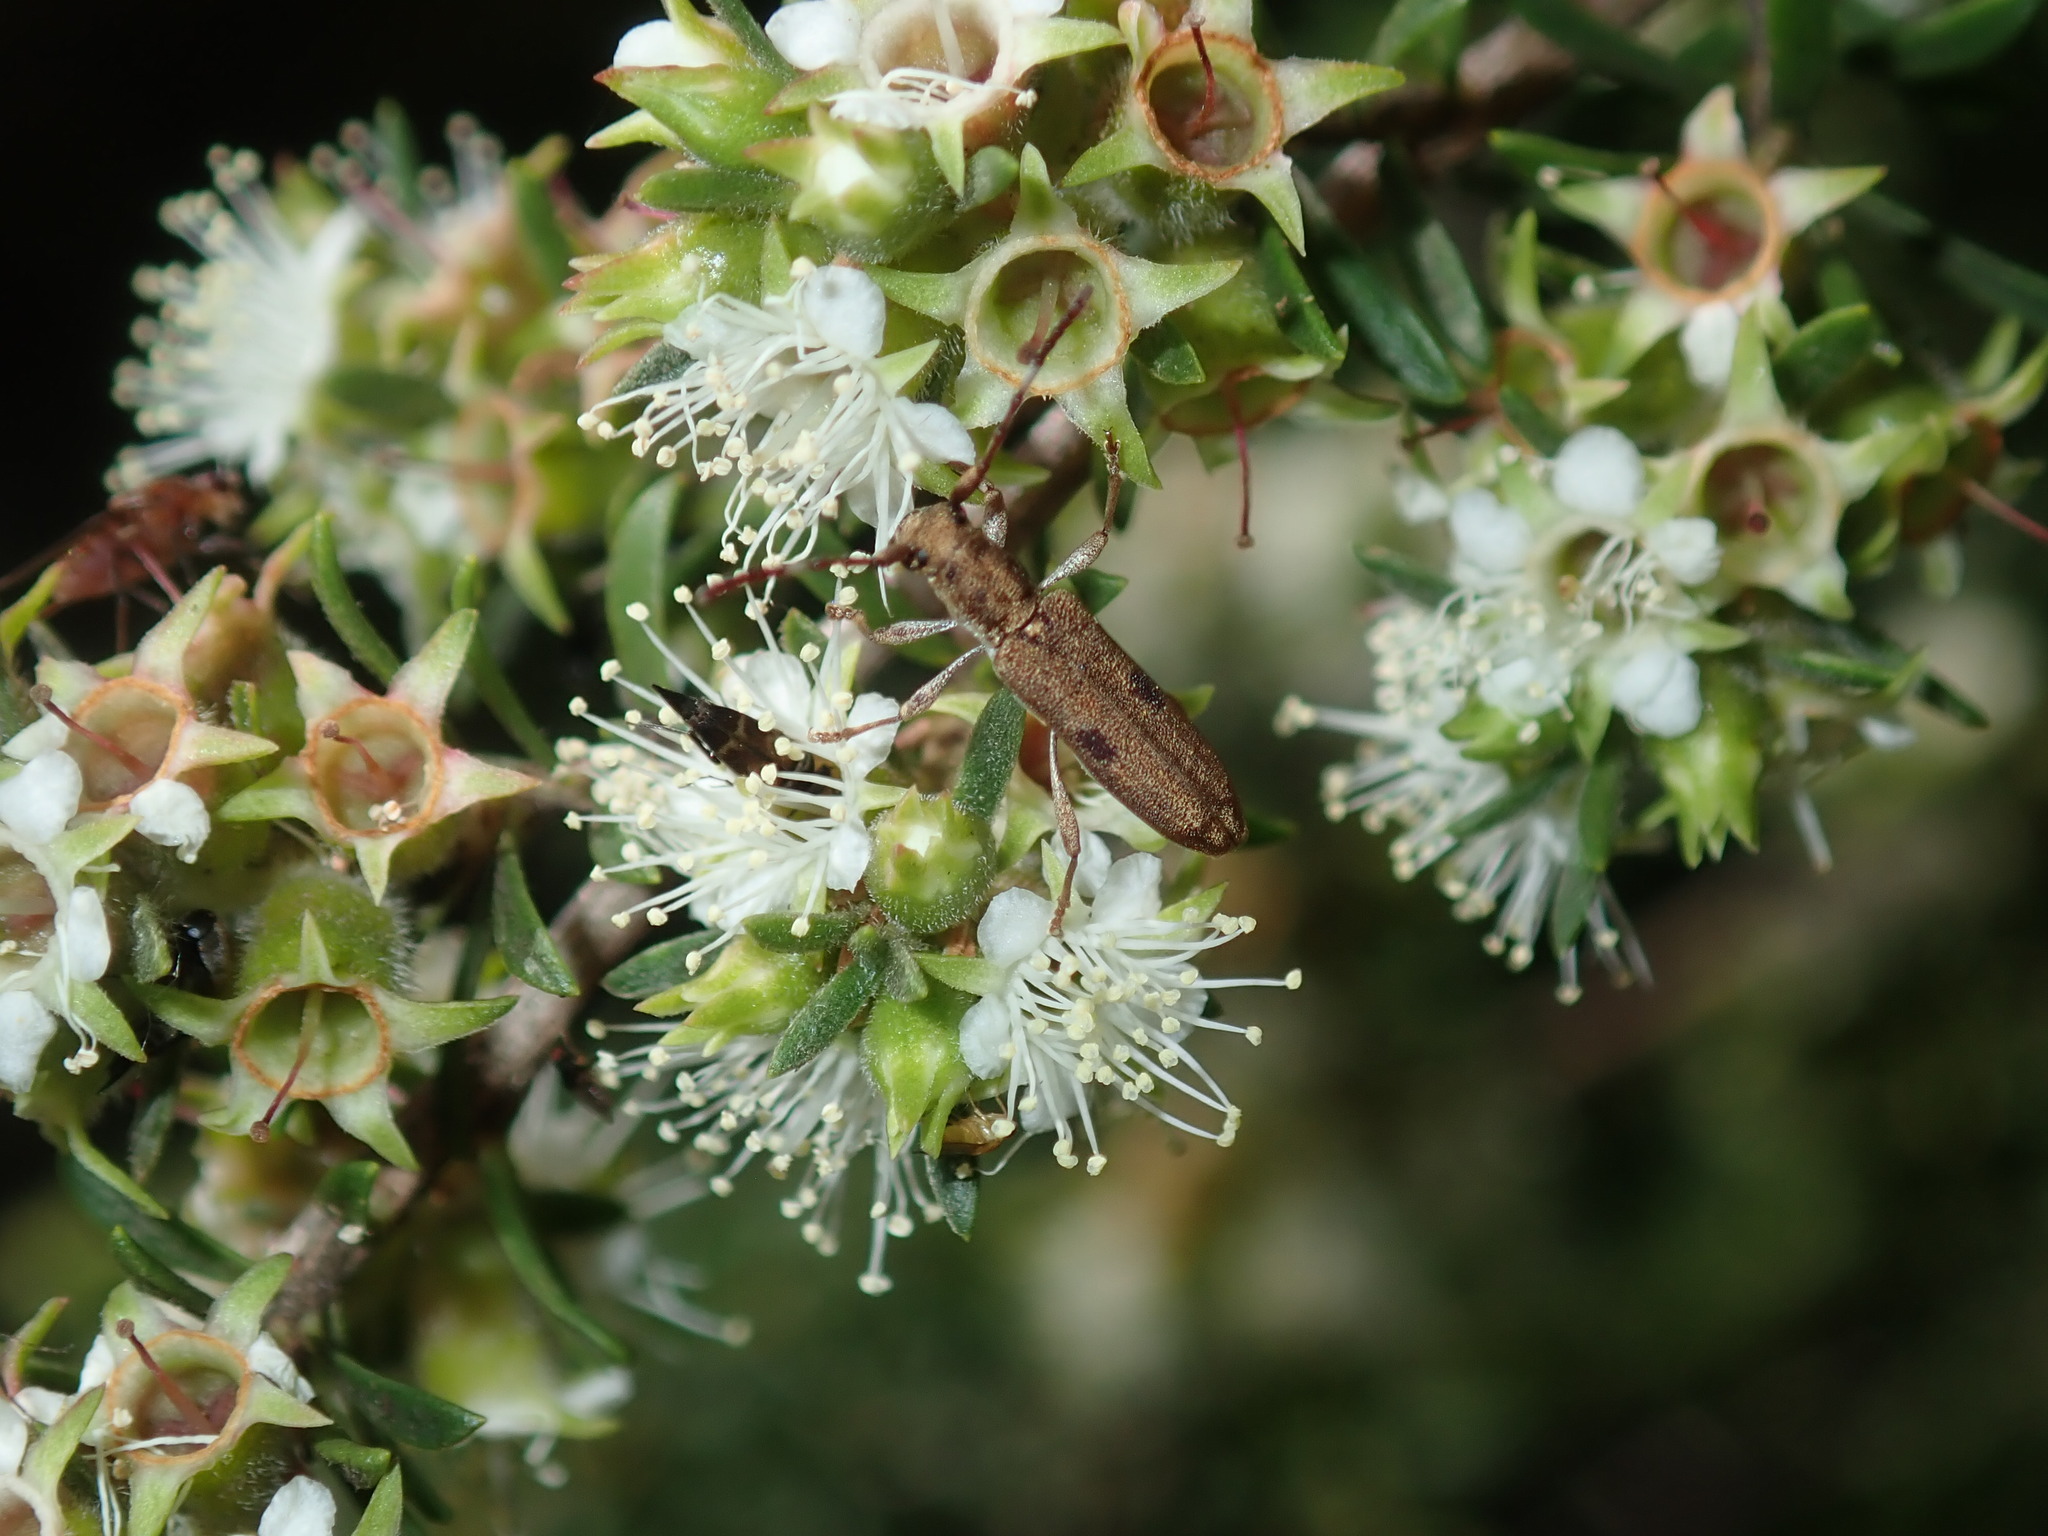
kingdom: Animalia
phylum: Arthropoda
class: Insecta
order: Coleoptera
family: Cerambycidae
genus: Pempsamacra
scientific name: Pempsamacra tillides
